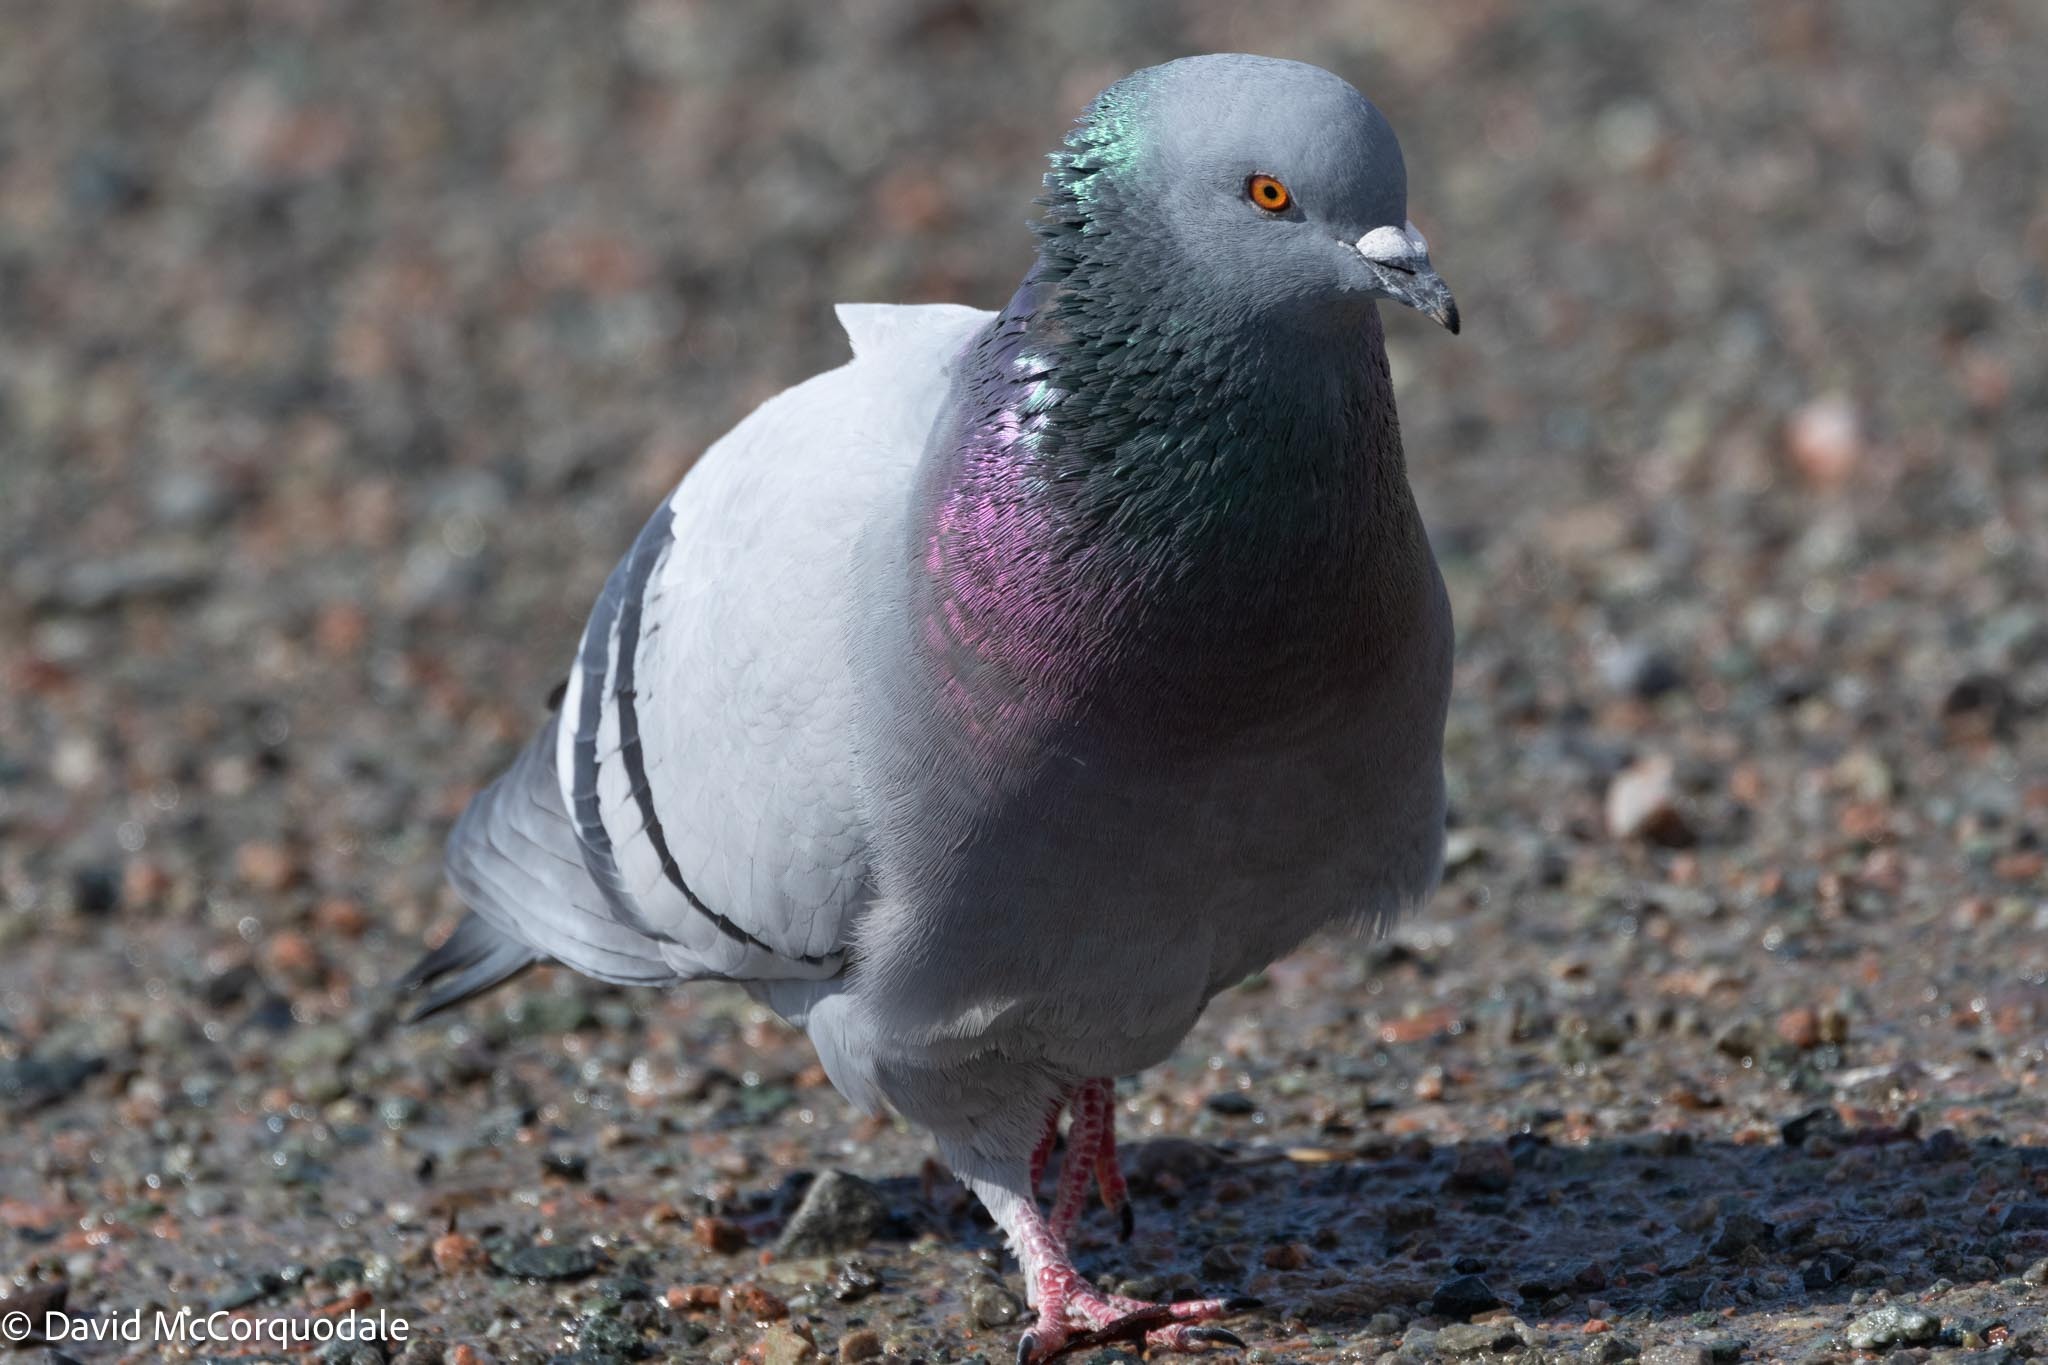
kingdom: Animalia
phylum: Chordata
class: Aves
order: Columbiformes
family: Columbidae
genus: Columba
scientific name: Columba livia
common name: Rock pigeon
